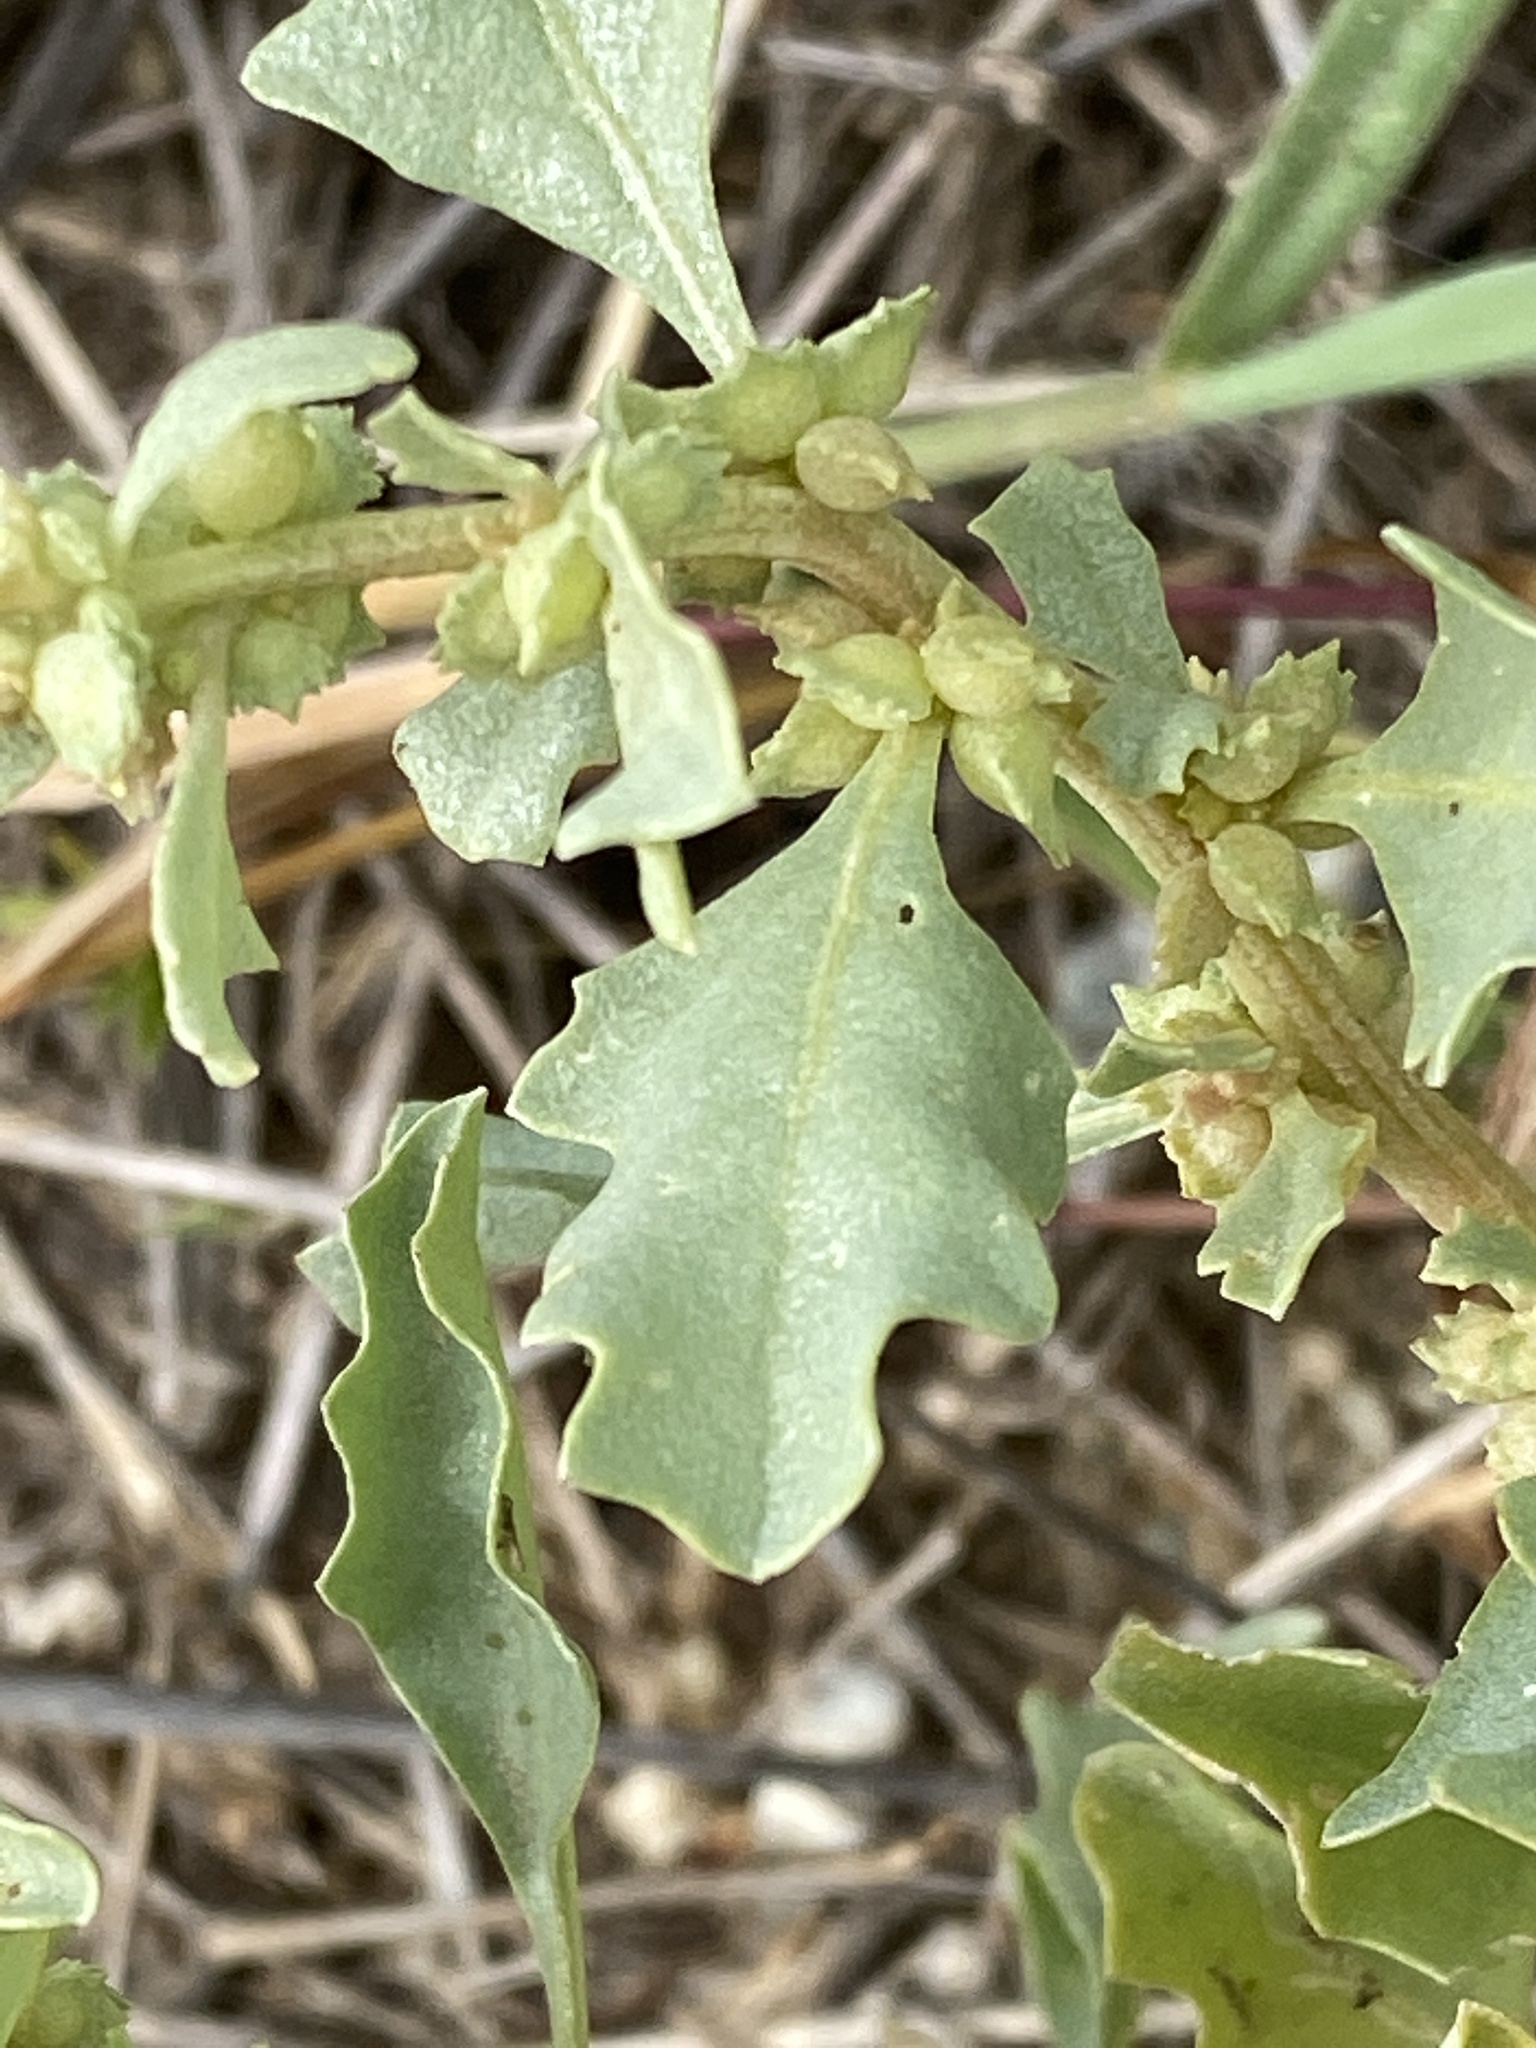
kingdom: Plantae
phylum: Tracheophyta
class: Magnoliopsida
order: Caryophyllales
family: Amaranthaceae
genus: Atriplex
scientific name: Atriplex muelleri
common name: Mueller's saltbush
